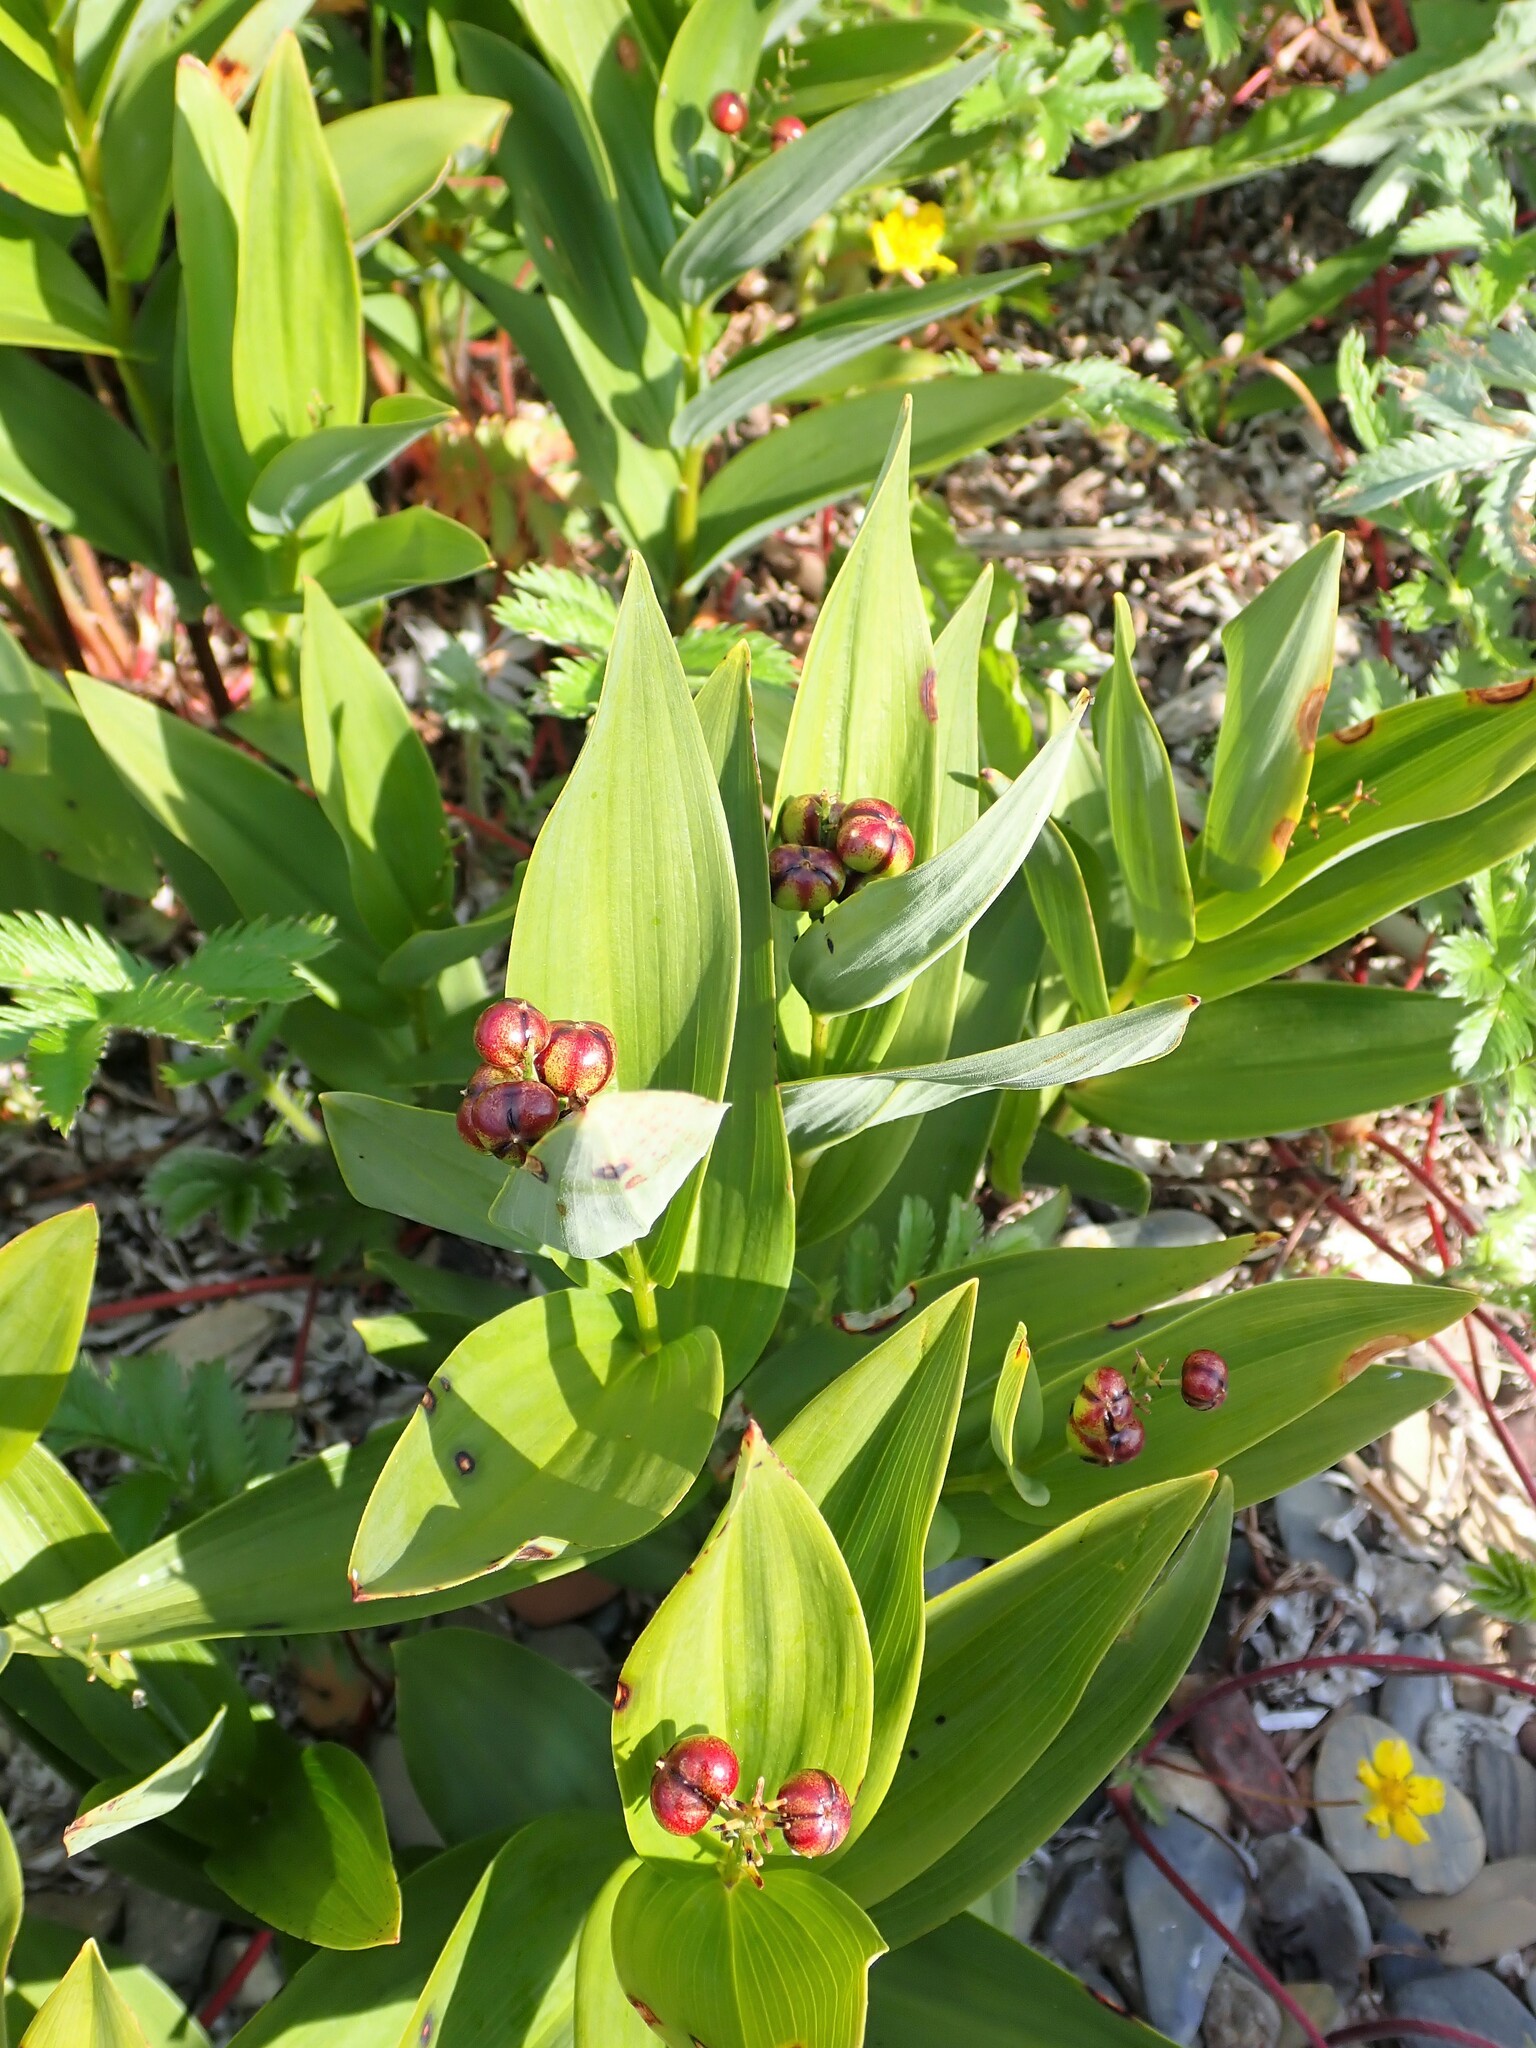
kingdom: Plantae
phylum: Tracheophyta
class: Liliopsida
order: Asparagales
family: Asparagaceae
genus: Maianthemum
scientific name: Maianthemum stellatum
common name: Little false solomon's seal
